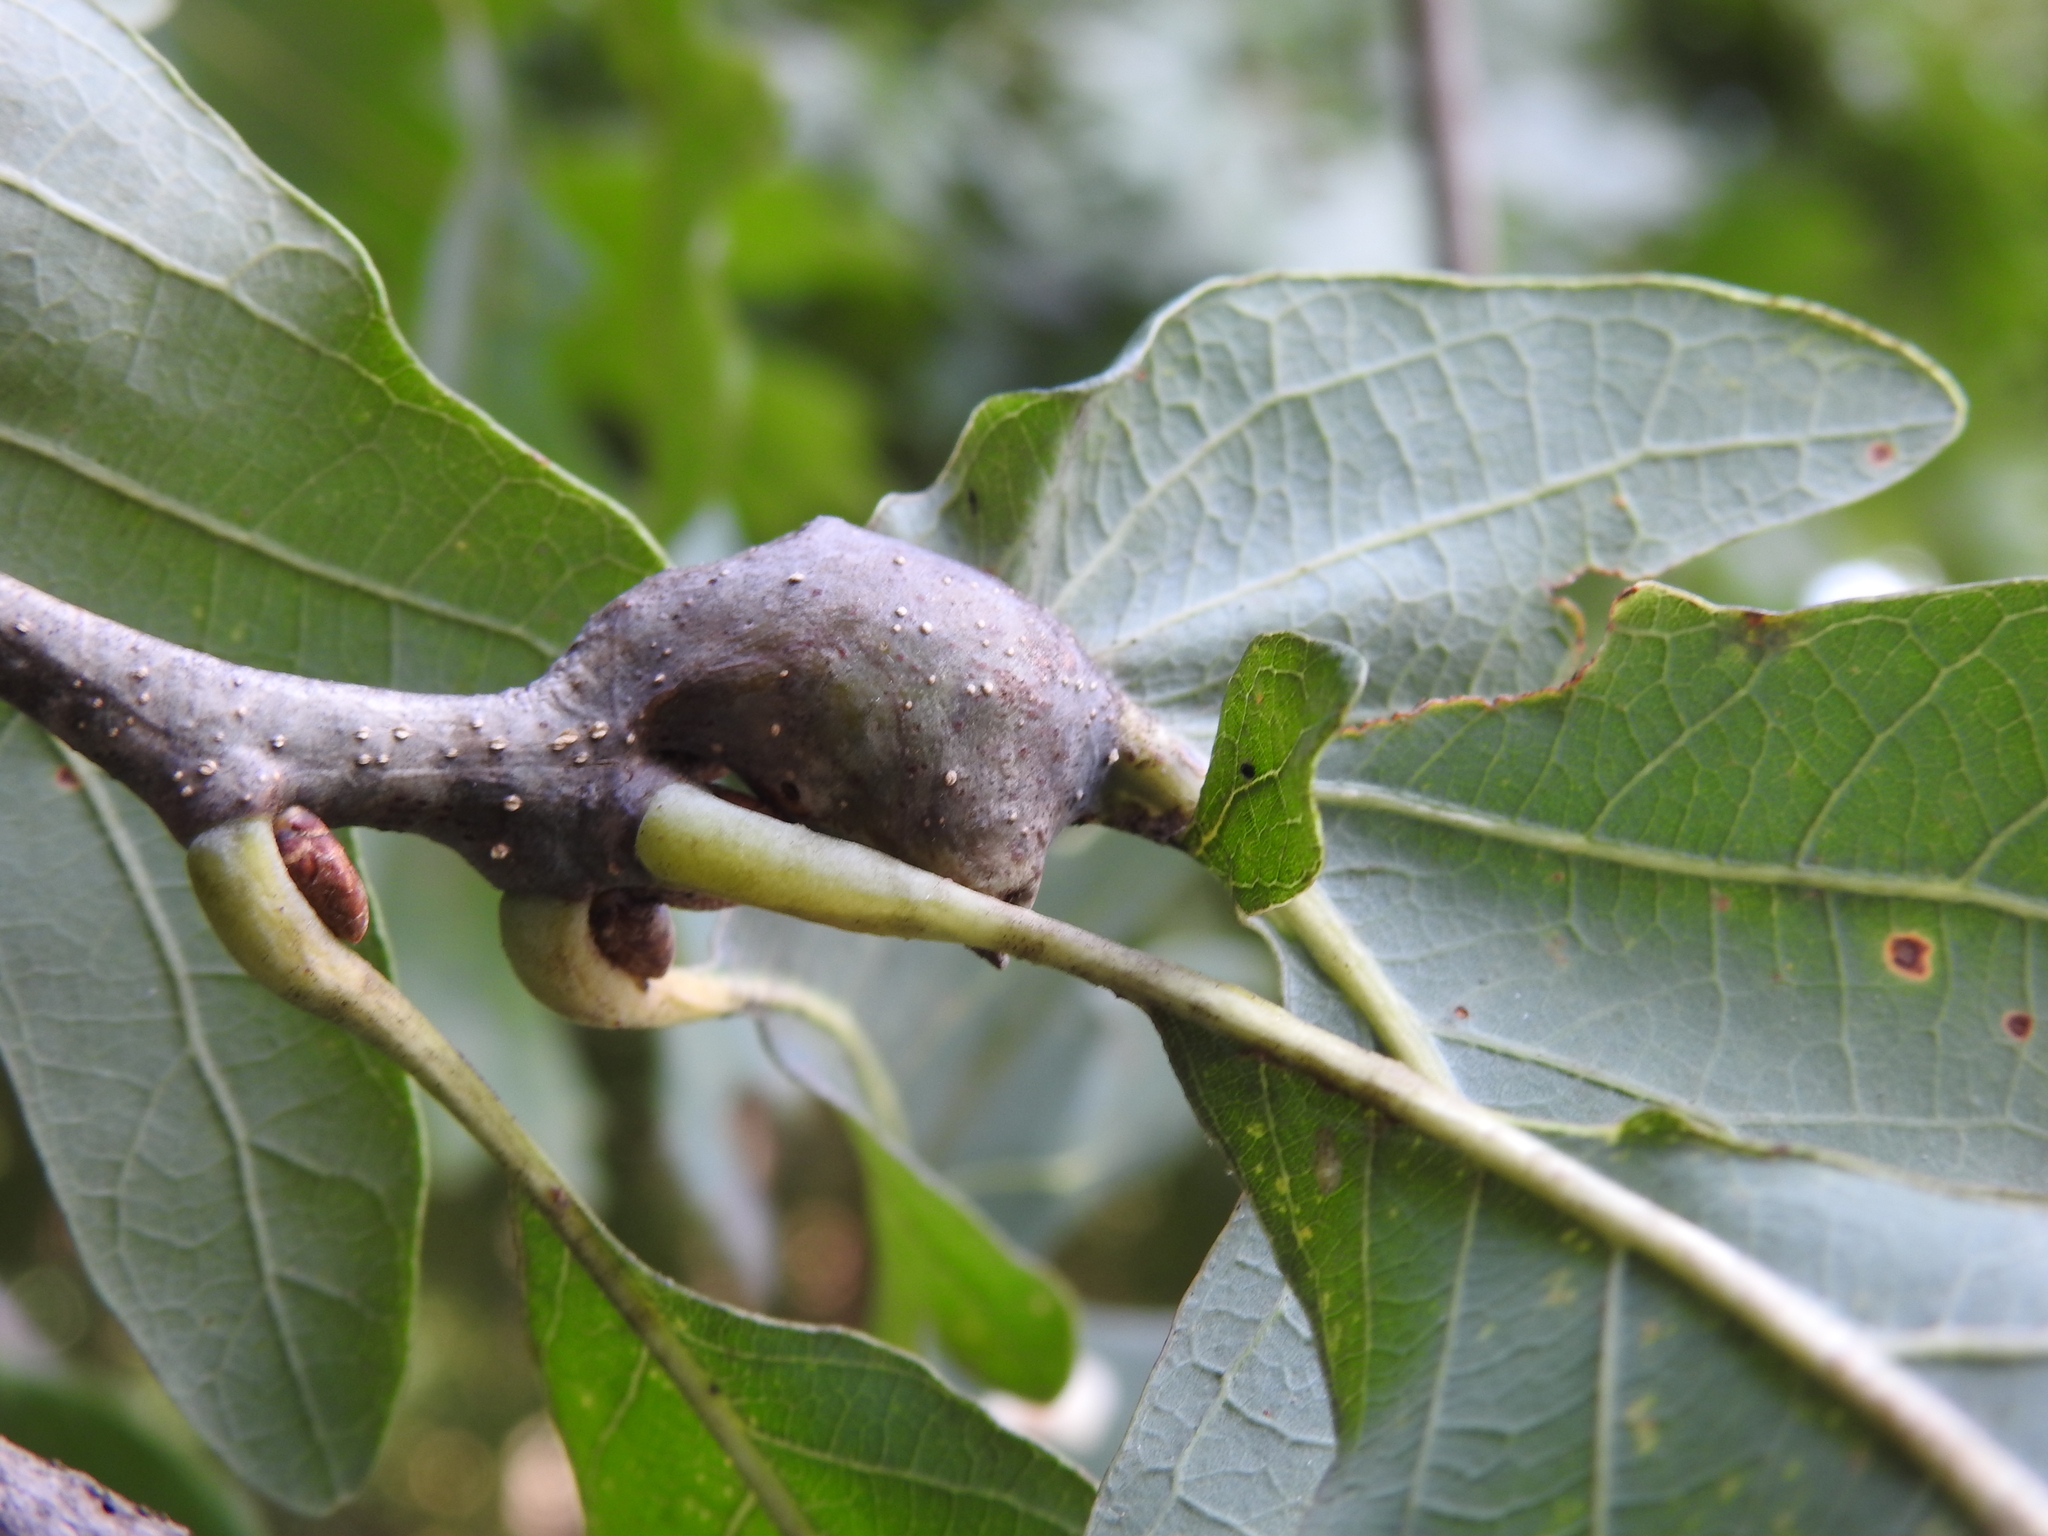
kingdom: Animalia
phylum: Arthropoda
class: Insecta
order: Hymenoptera
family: Cynipidae
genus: Neuroterus
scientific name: Neuroterus quercusbaccarum
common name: Common spangle gall
